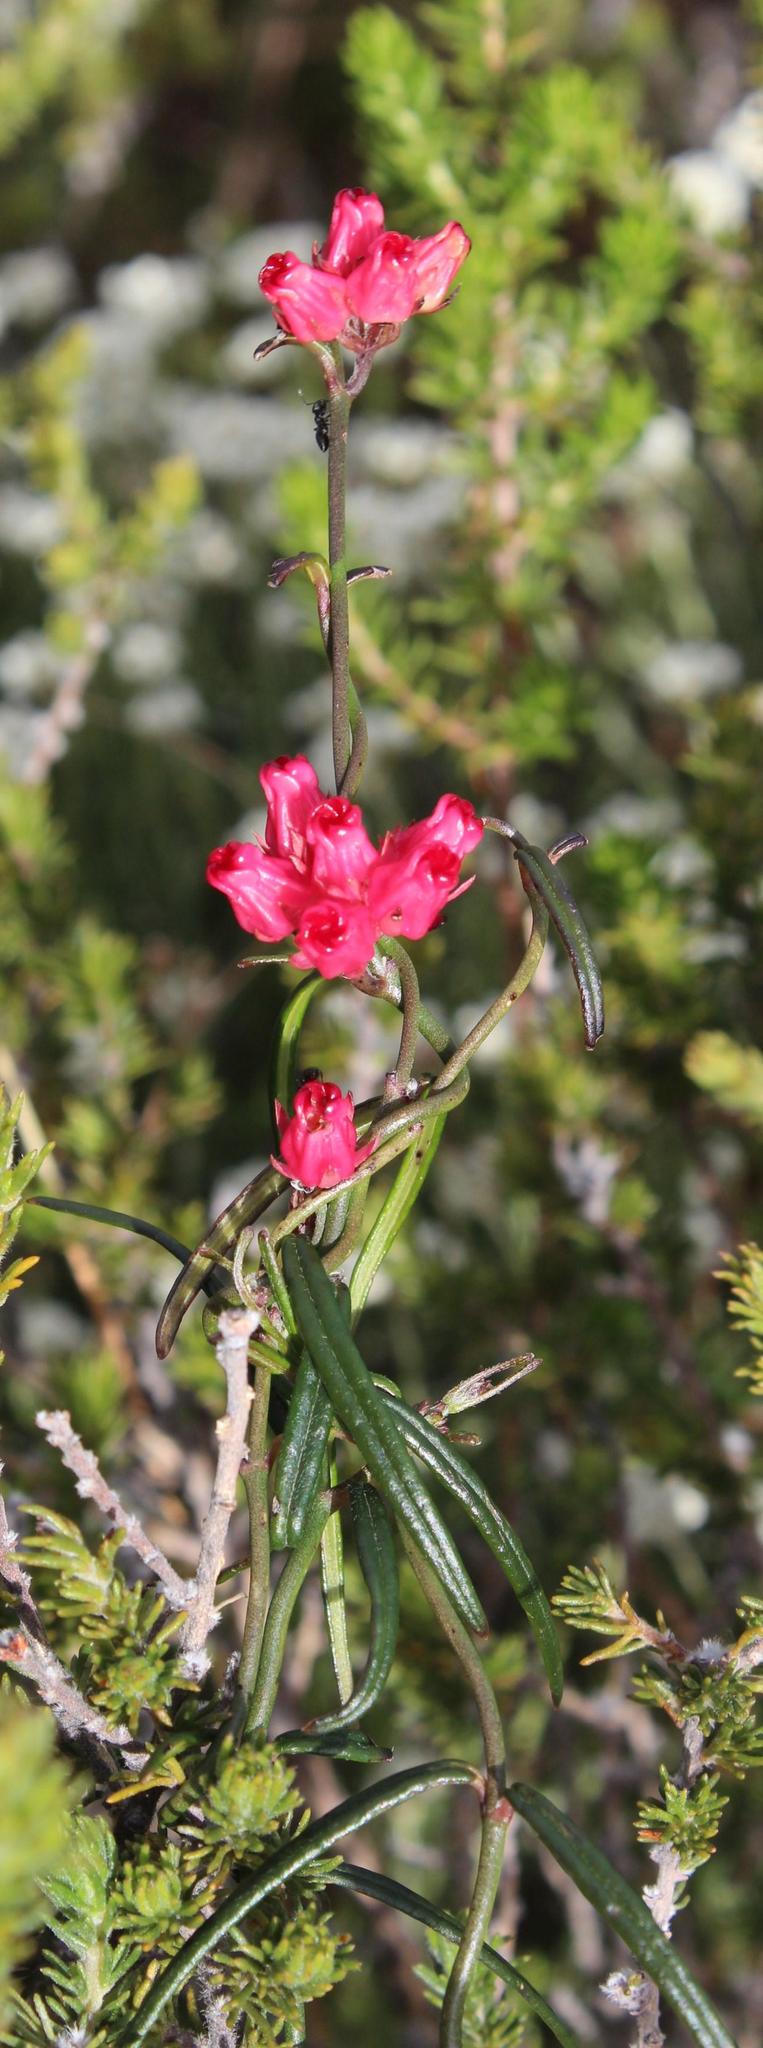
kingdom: Plantae
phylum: Tracheophyta
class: Magnoliopsida
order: Gentianales
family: Apocynaceae
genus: Microloma
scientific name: Microloma tenuifolium
